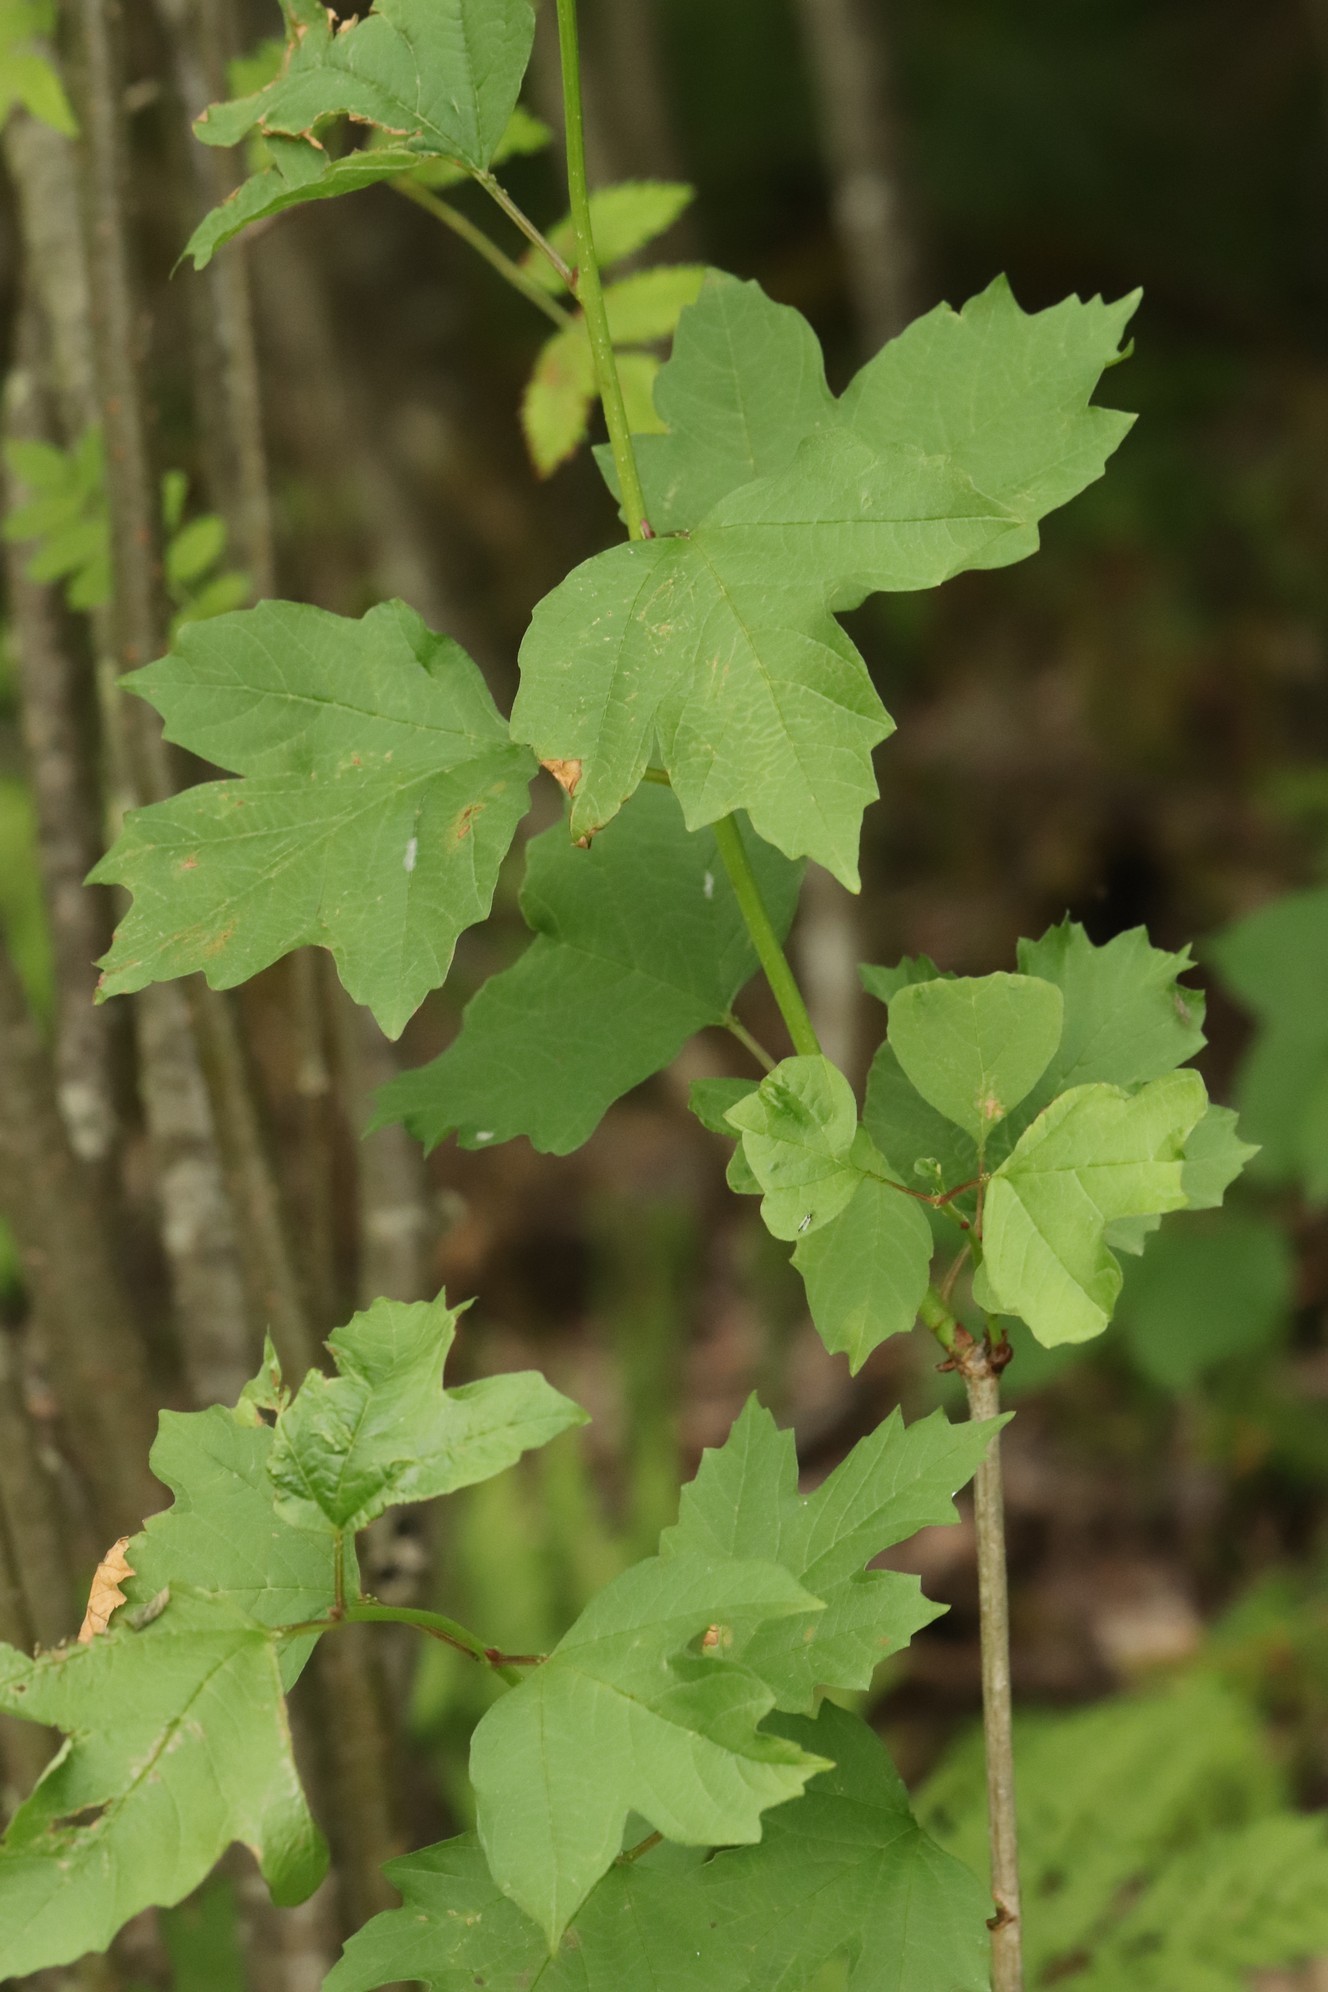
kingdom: Plantae
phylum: Tracheophyta
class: Magnoliopsida
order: Dipsacales
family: Viburnaceae
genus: Viburnum
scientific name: Viburnum opulus
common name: Guelder-rose
